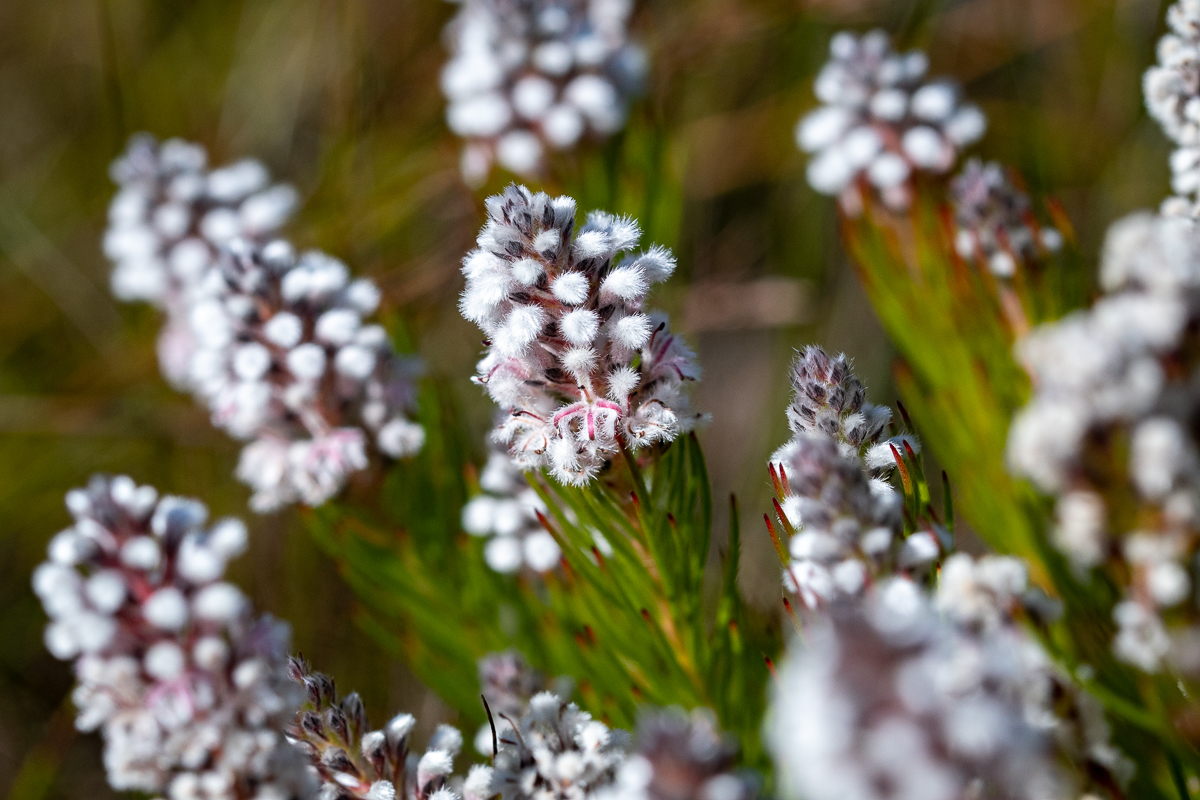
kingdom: Plantae
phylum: Tracheophyta
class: Magnoliopsida
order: Proteales
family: Proteaceae
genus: Spatalla
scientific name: Spatalla mollis
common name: Woolly spoon
